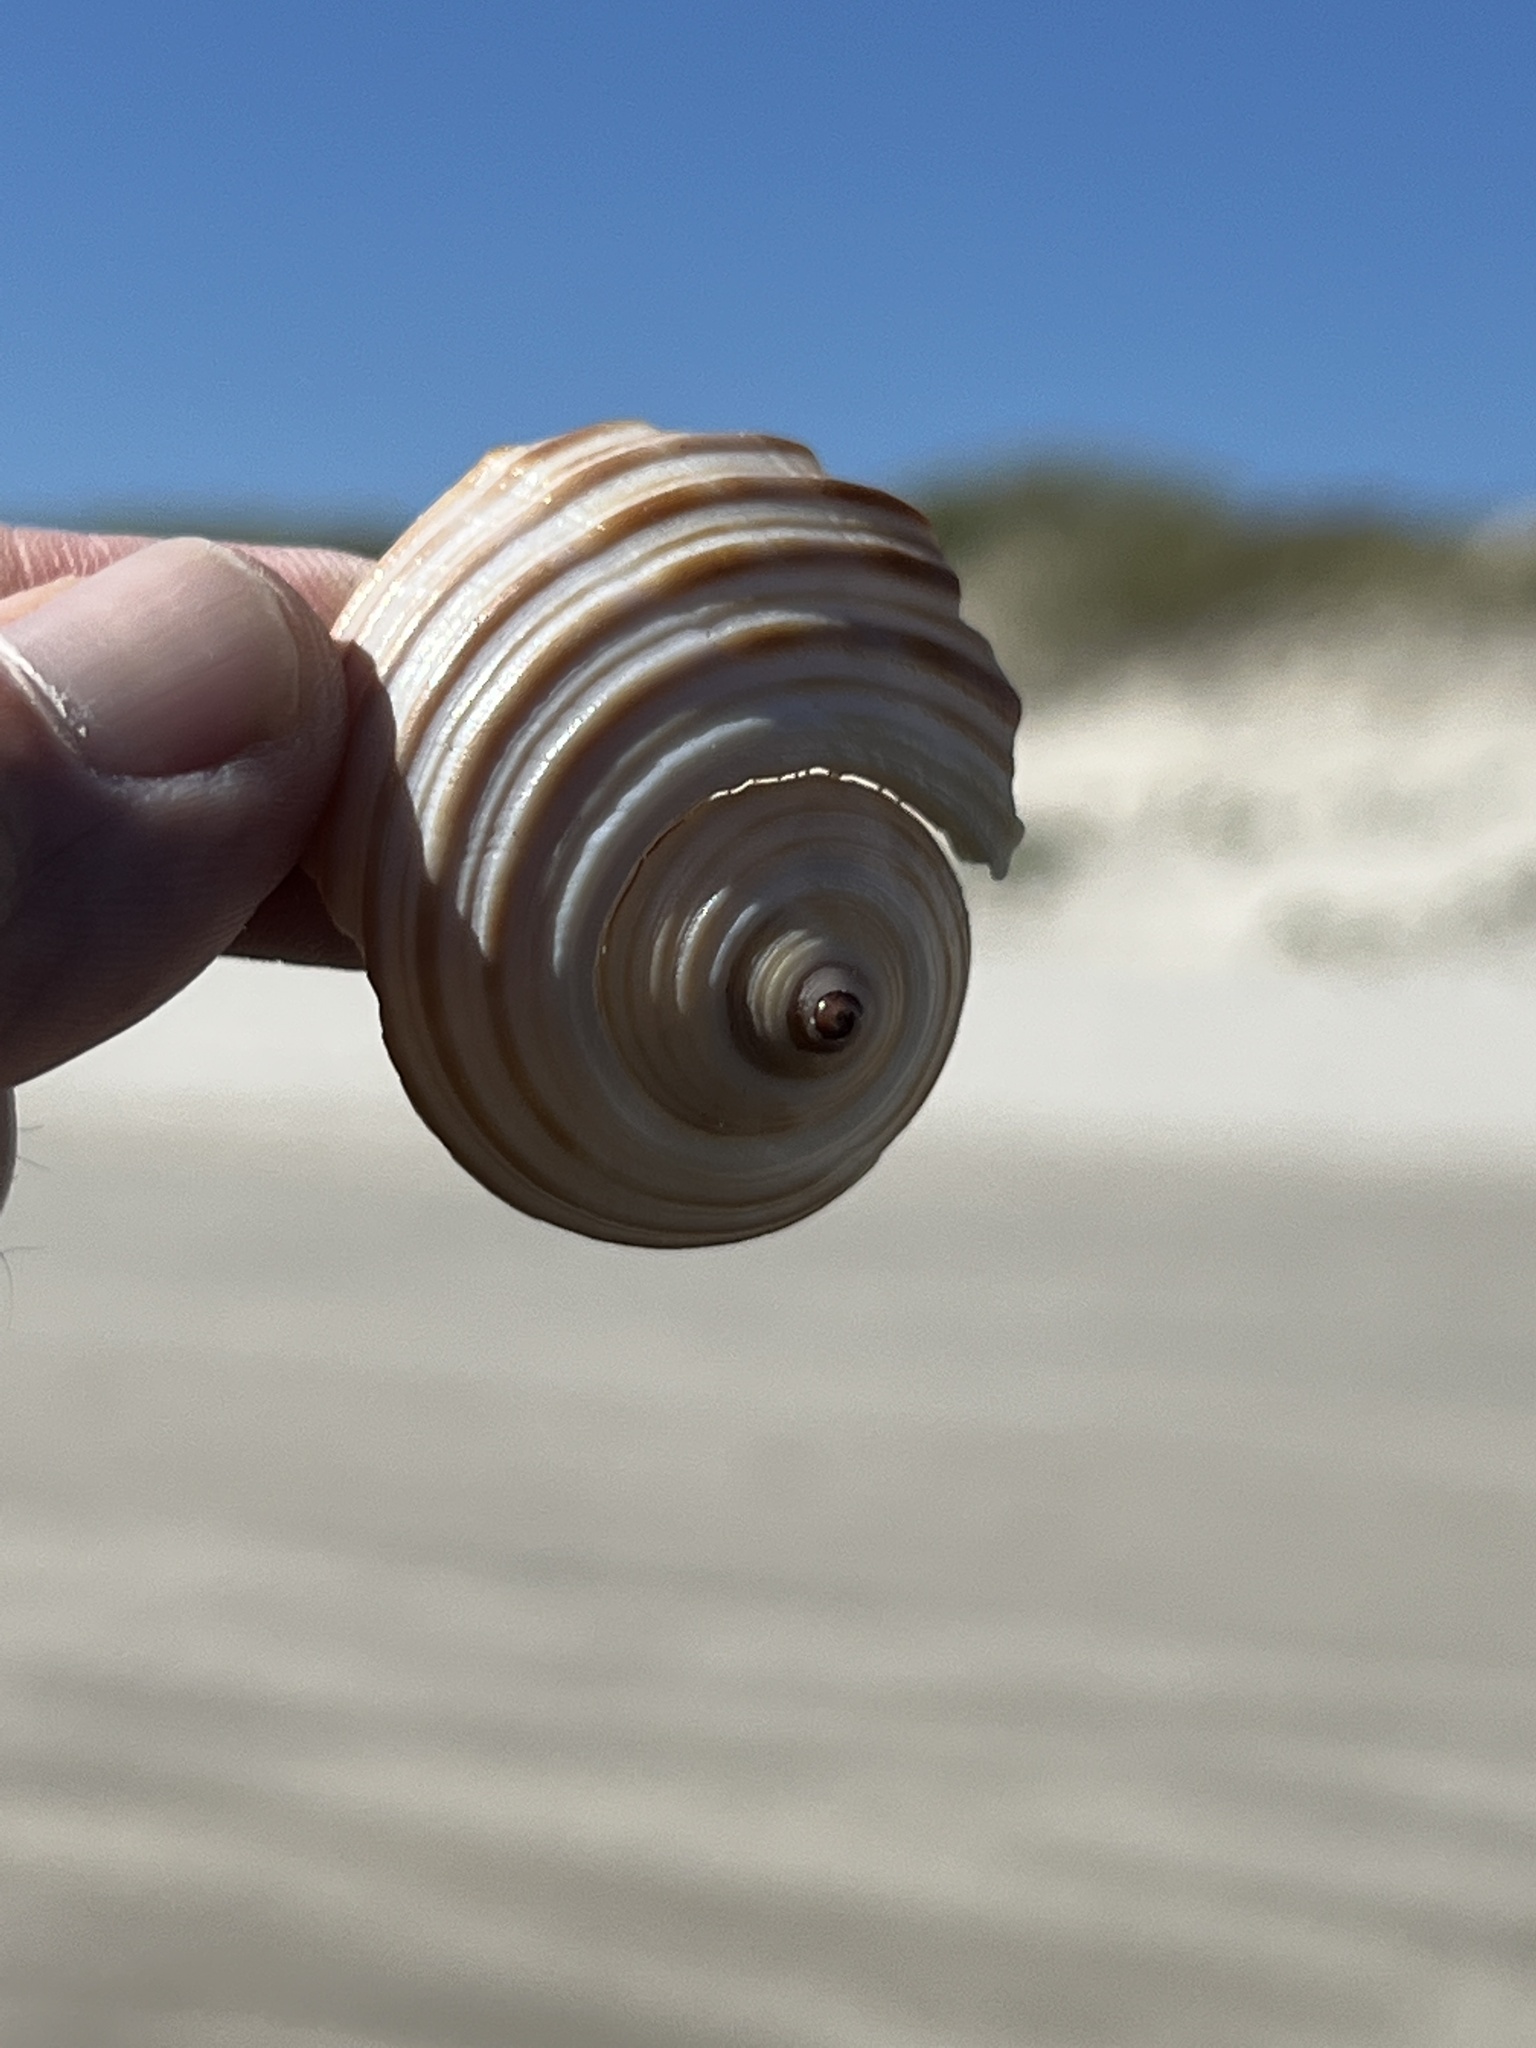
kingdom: Animalia
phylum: Mollusca
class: Gastropoda
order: Littorinimorpha
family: Tonnidae
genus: Tonna
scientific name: Tonna galea
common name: Giant tun
